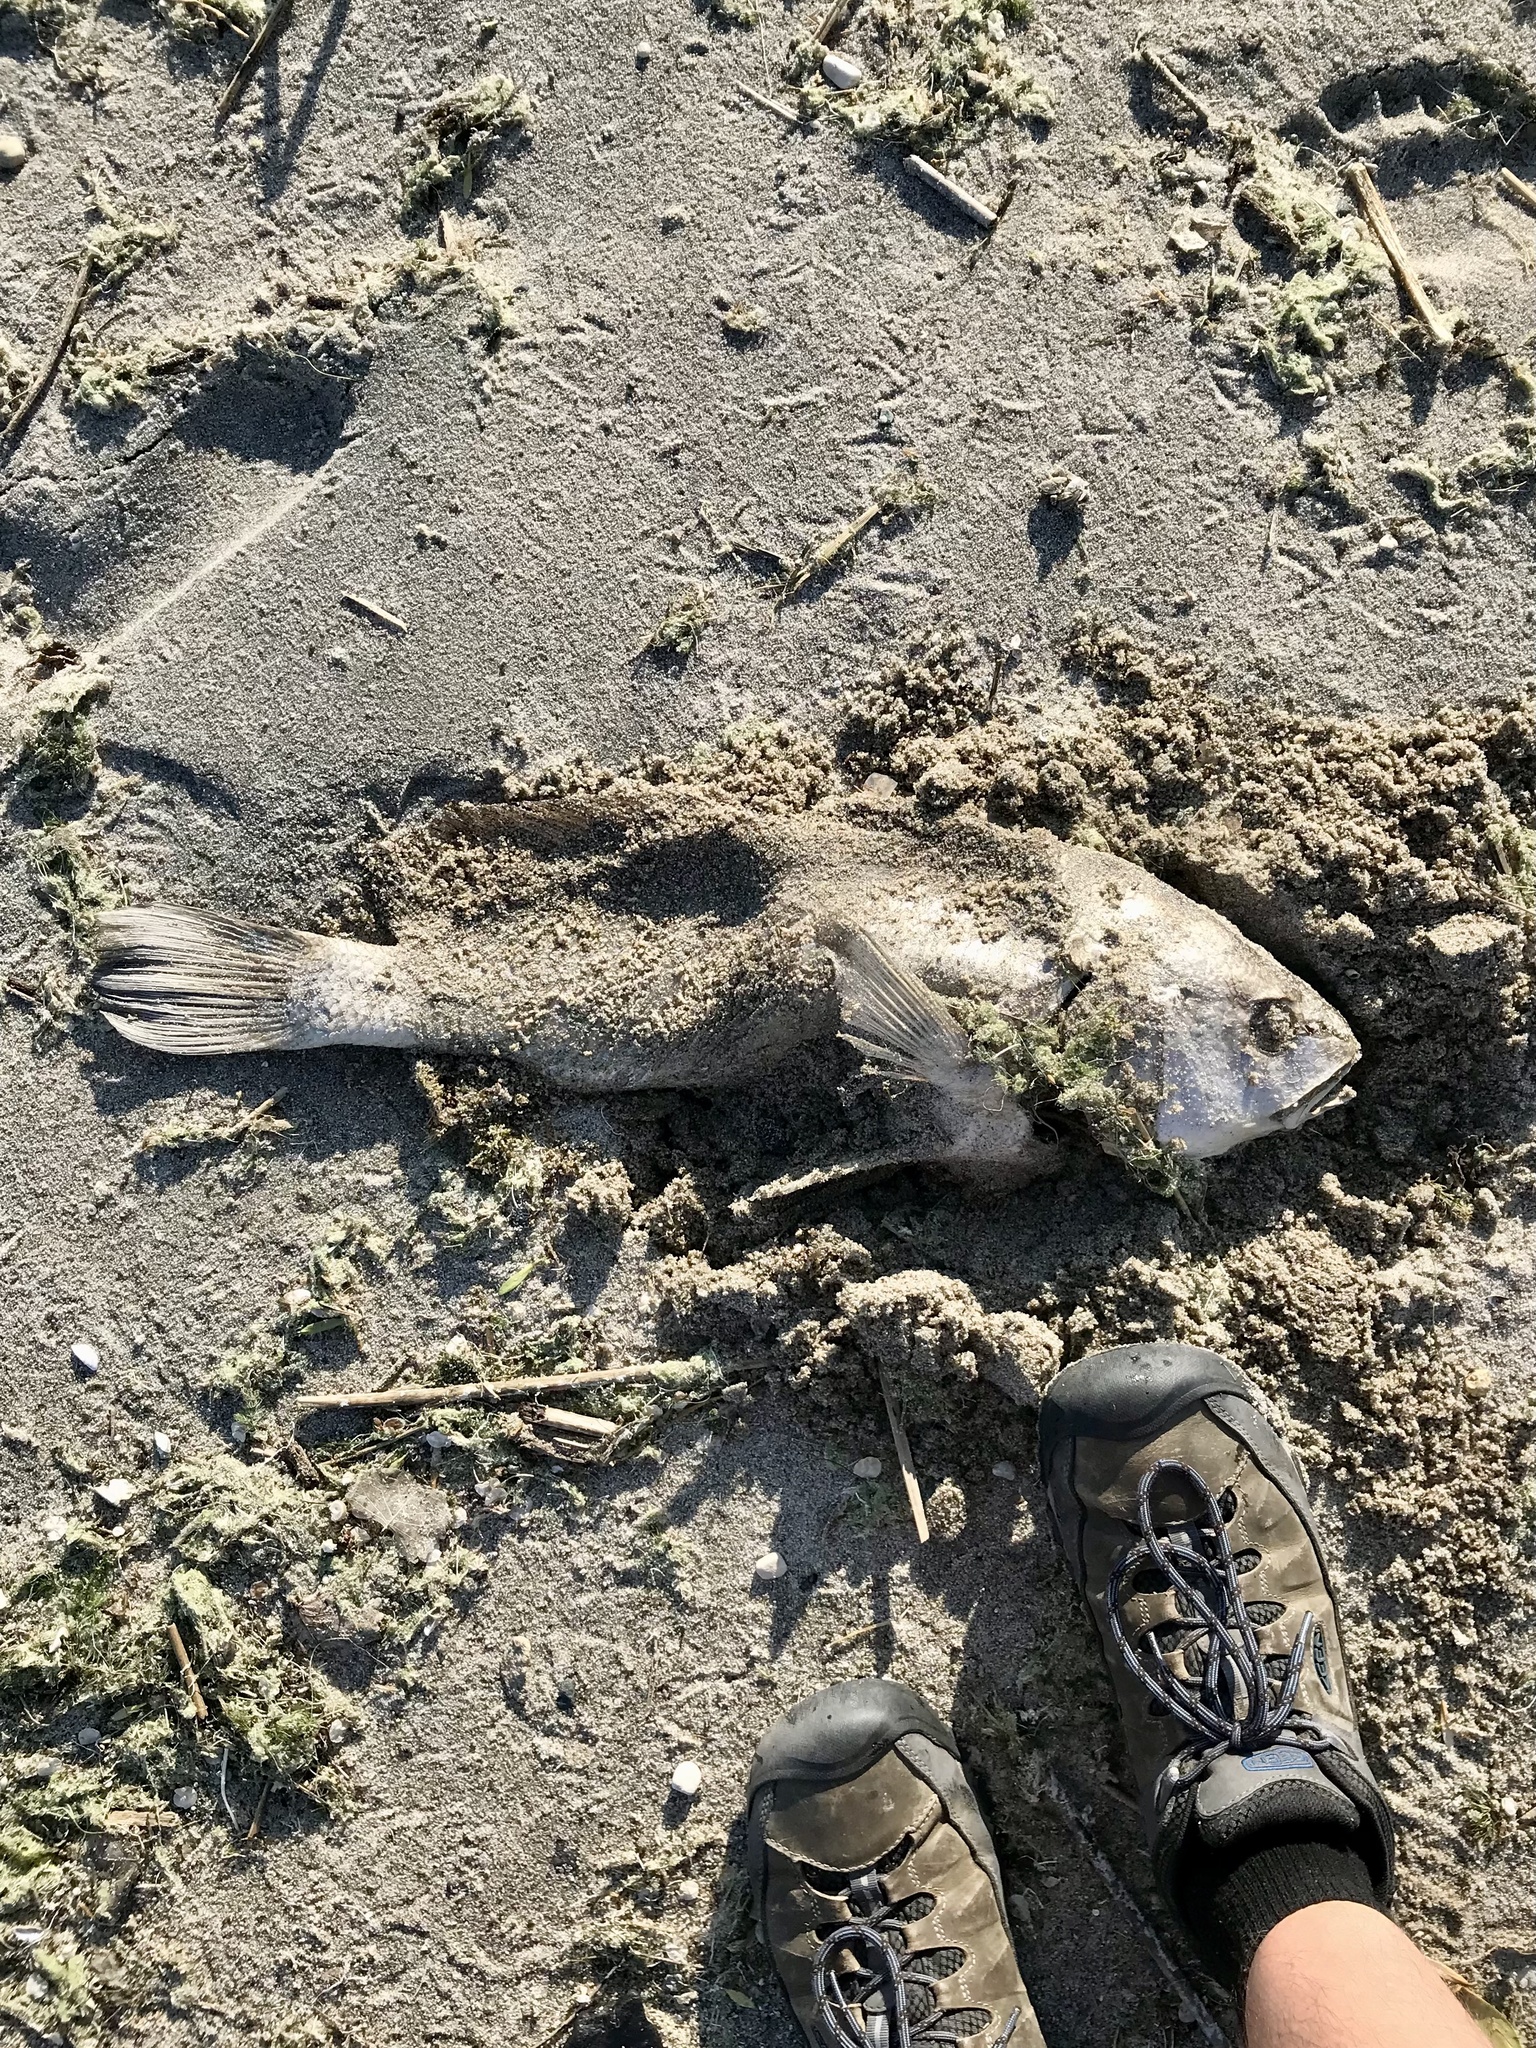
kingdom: Animalia
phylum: Chordata
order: Perciformes
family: Sciaenidae
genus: Aplodinotus
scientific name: Aplodinotus grunniens
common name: Freshwater drum
